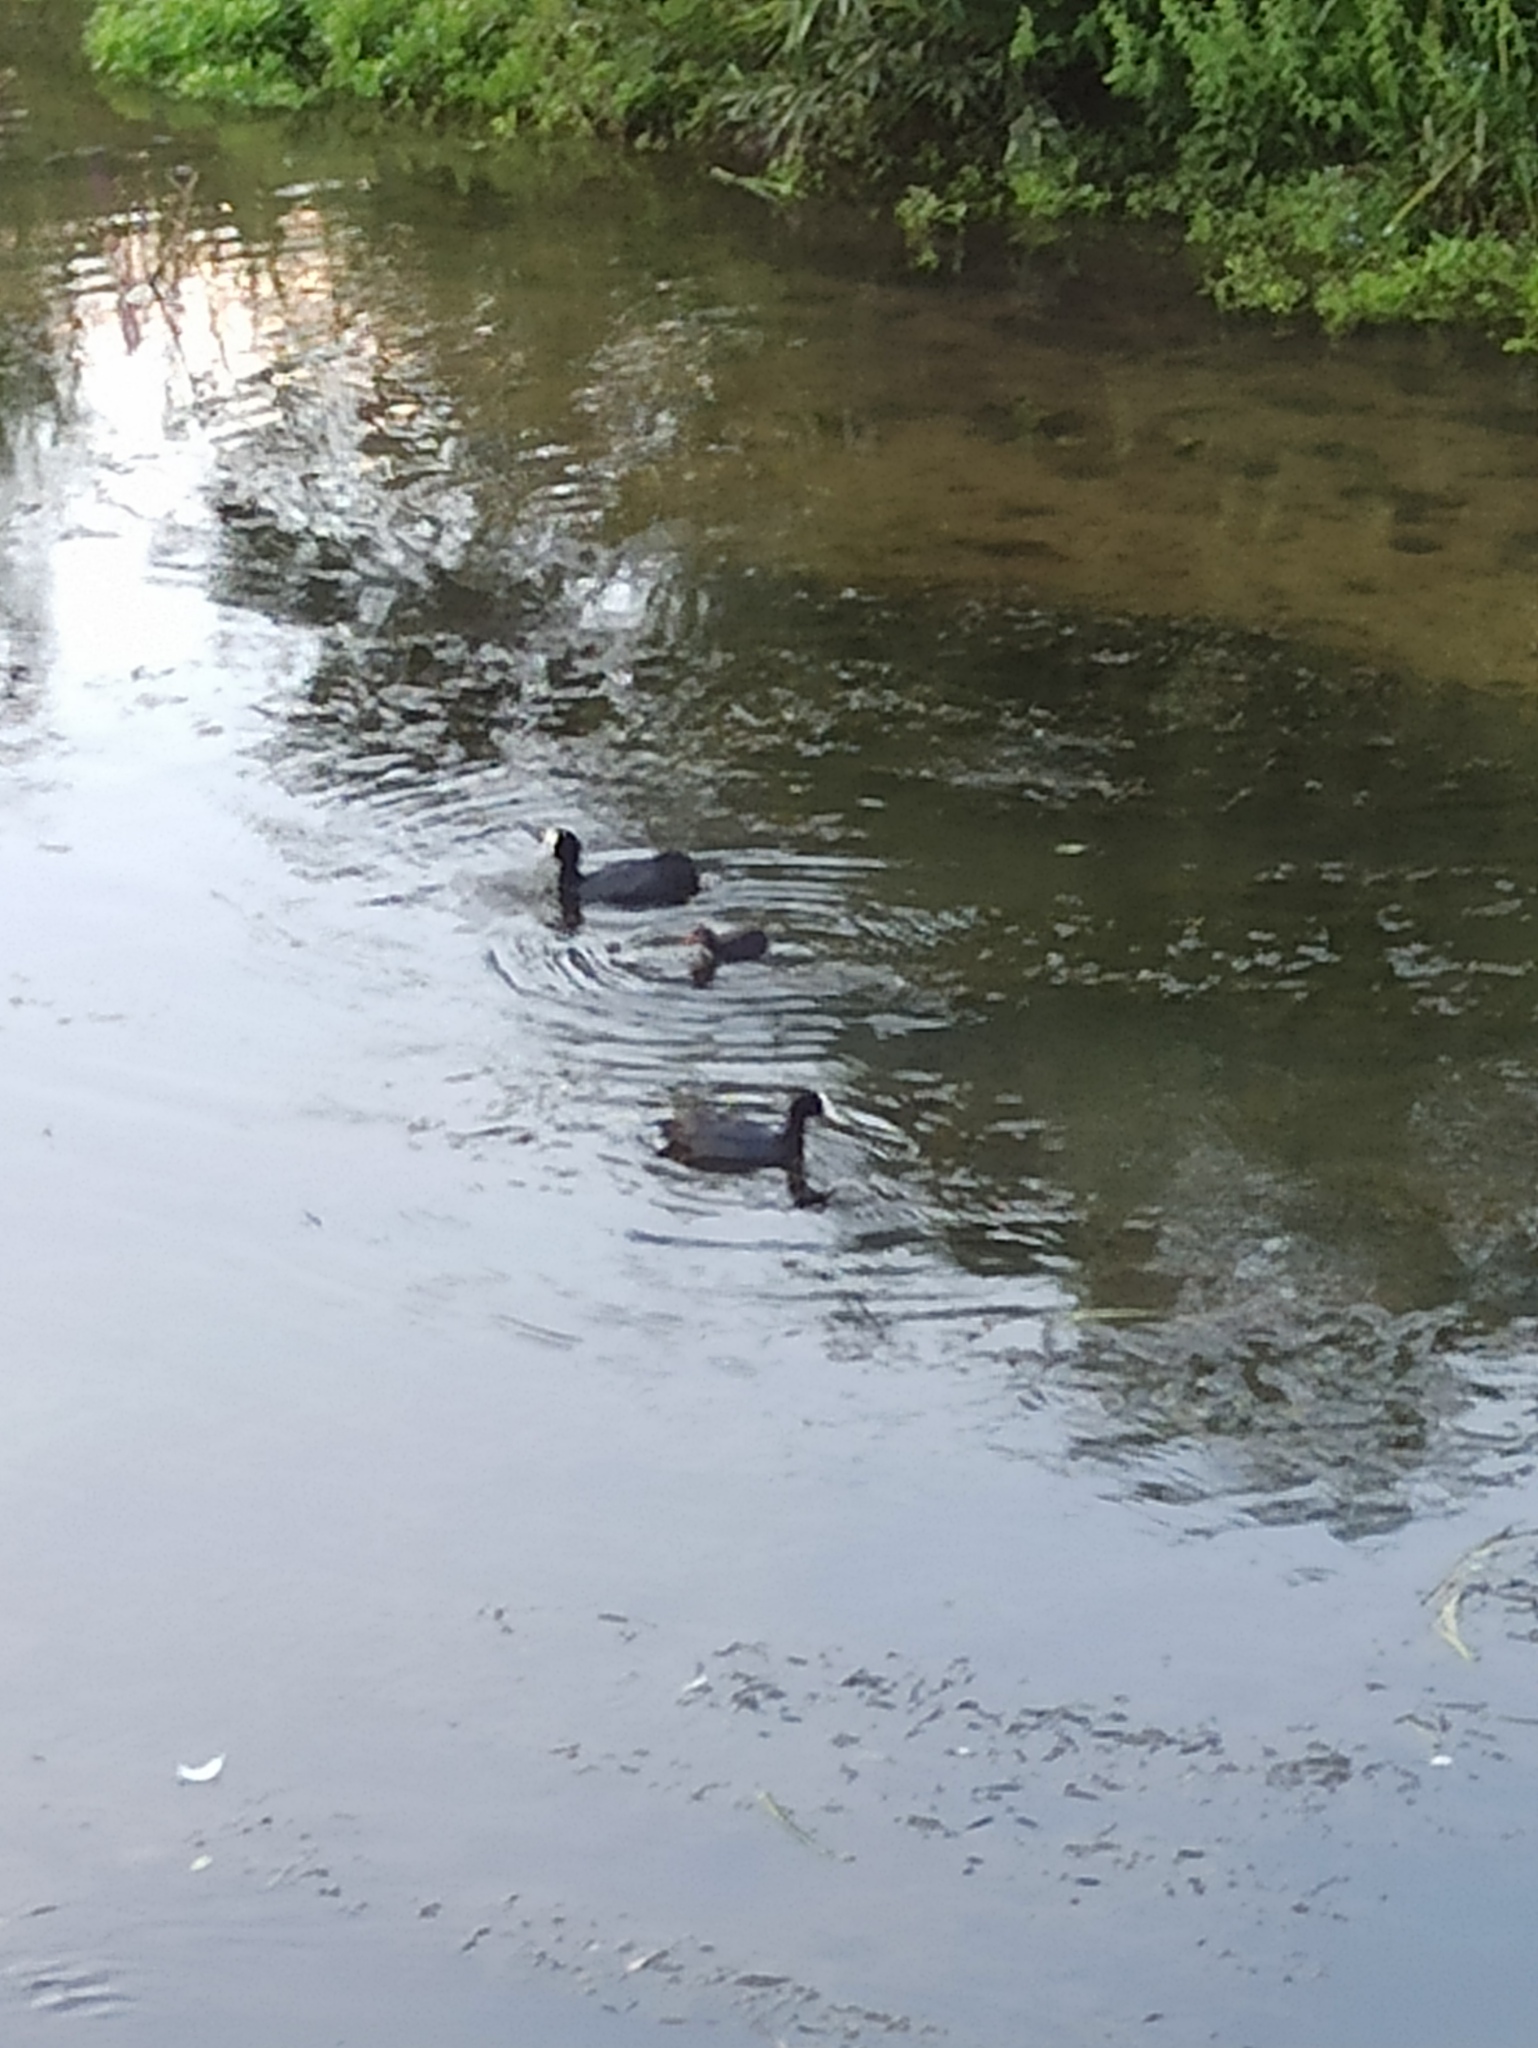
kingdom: Animalia
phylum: Chordata
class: Aves
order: Gruiformes
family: Rallidae
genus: Fulica
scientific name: Fulica atra
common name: Eurasian coot
